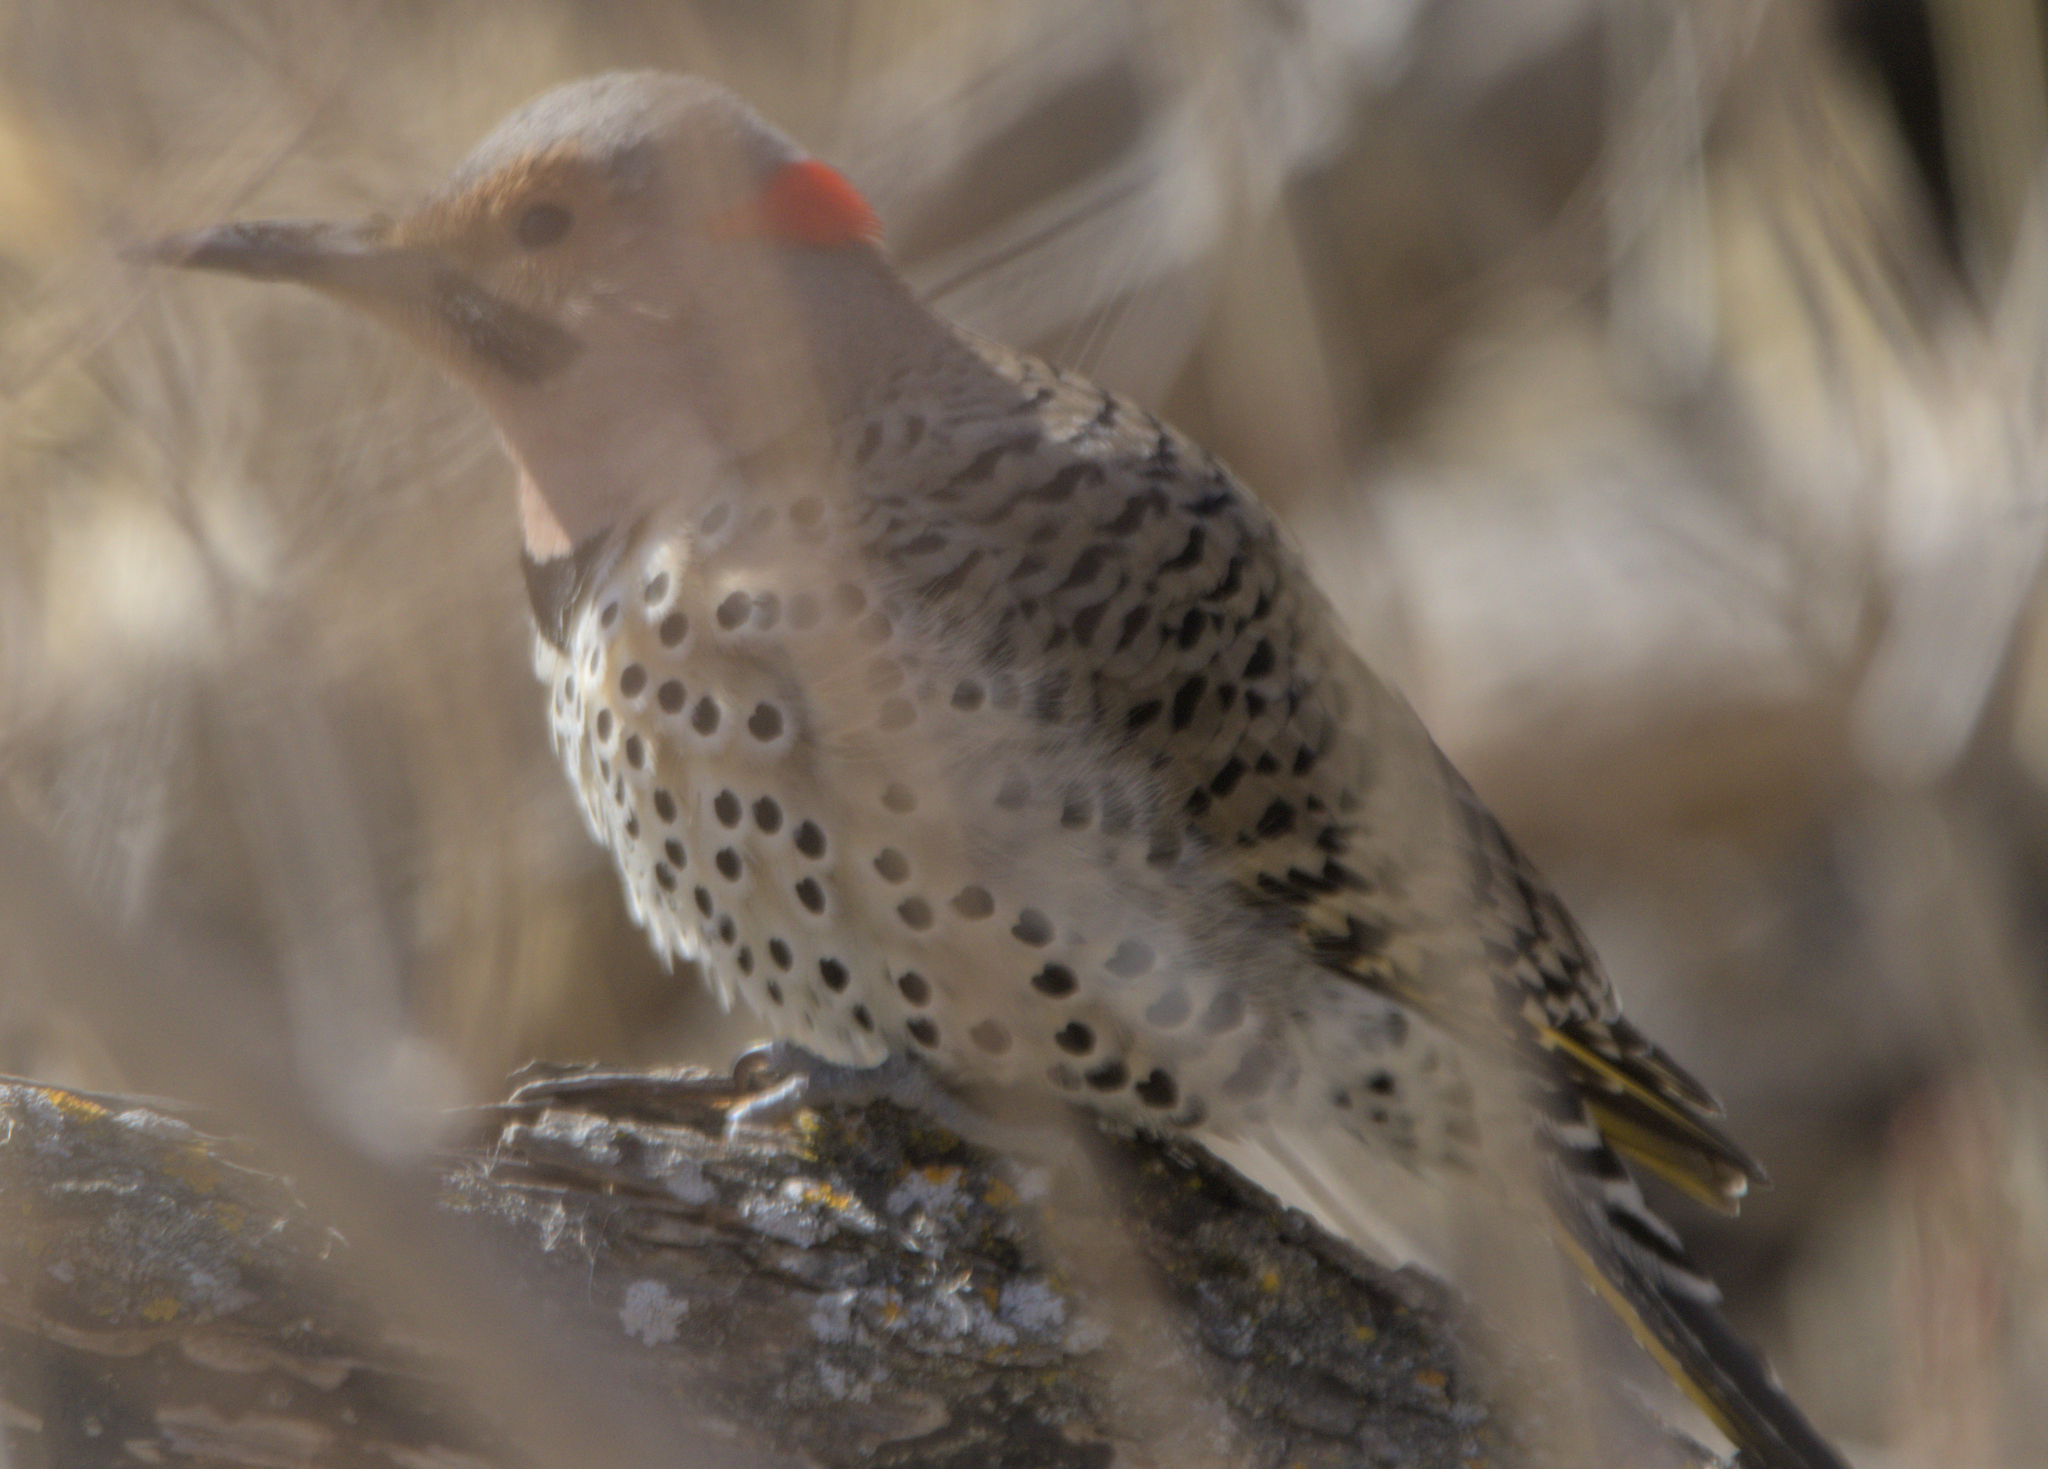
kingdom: Animalia
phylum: Chordata
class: Aves
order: Piciformes
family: Picidae
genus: Colaptes
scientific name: Colaptes auratus
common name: Northern flicker
